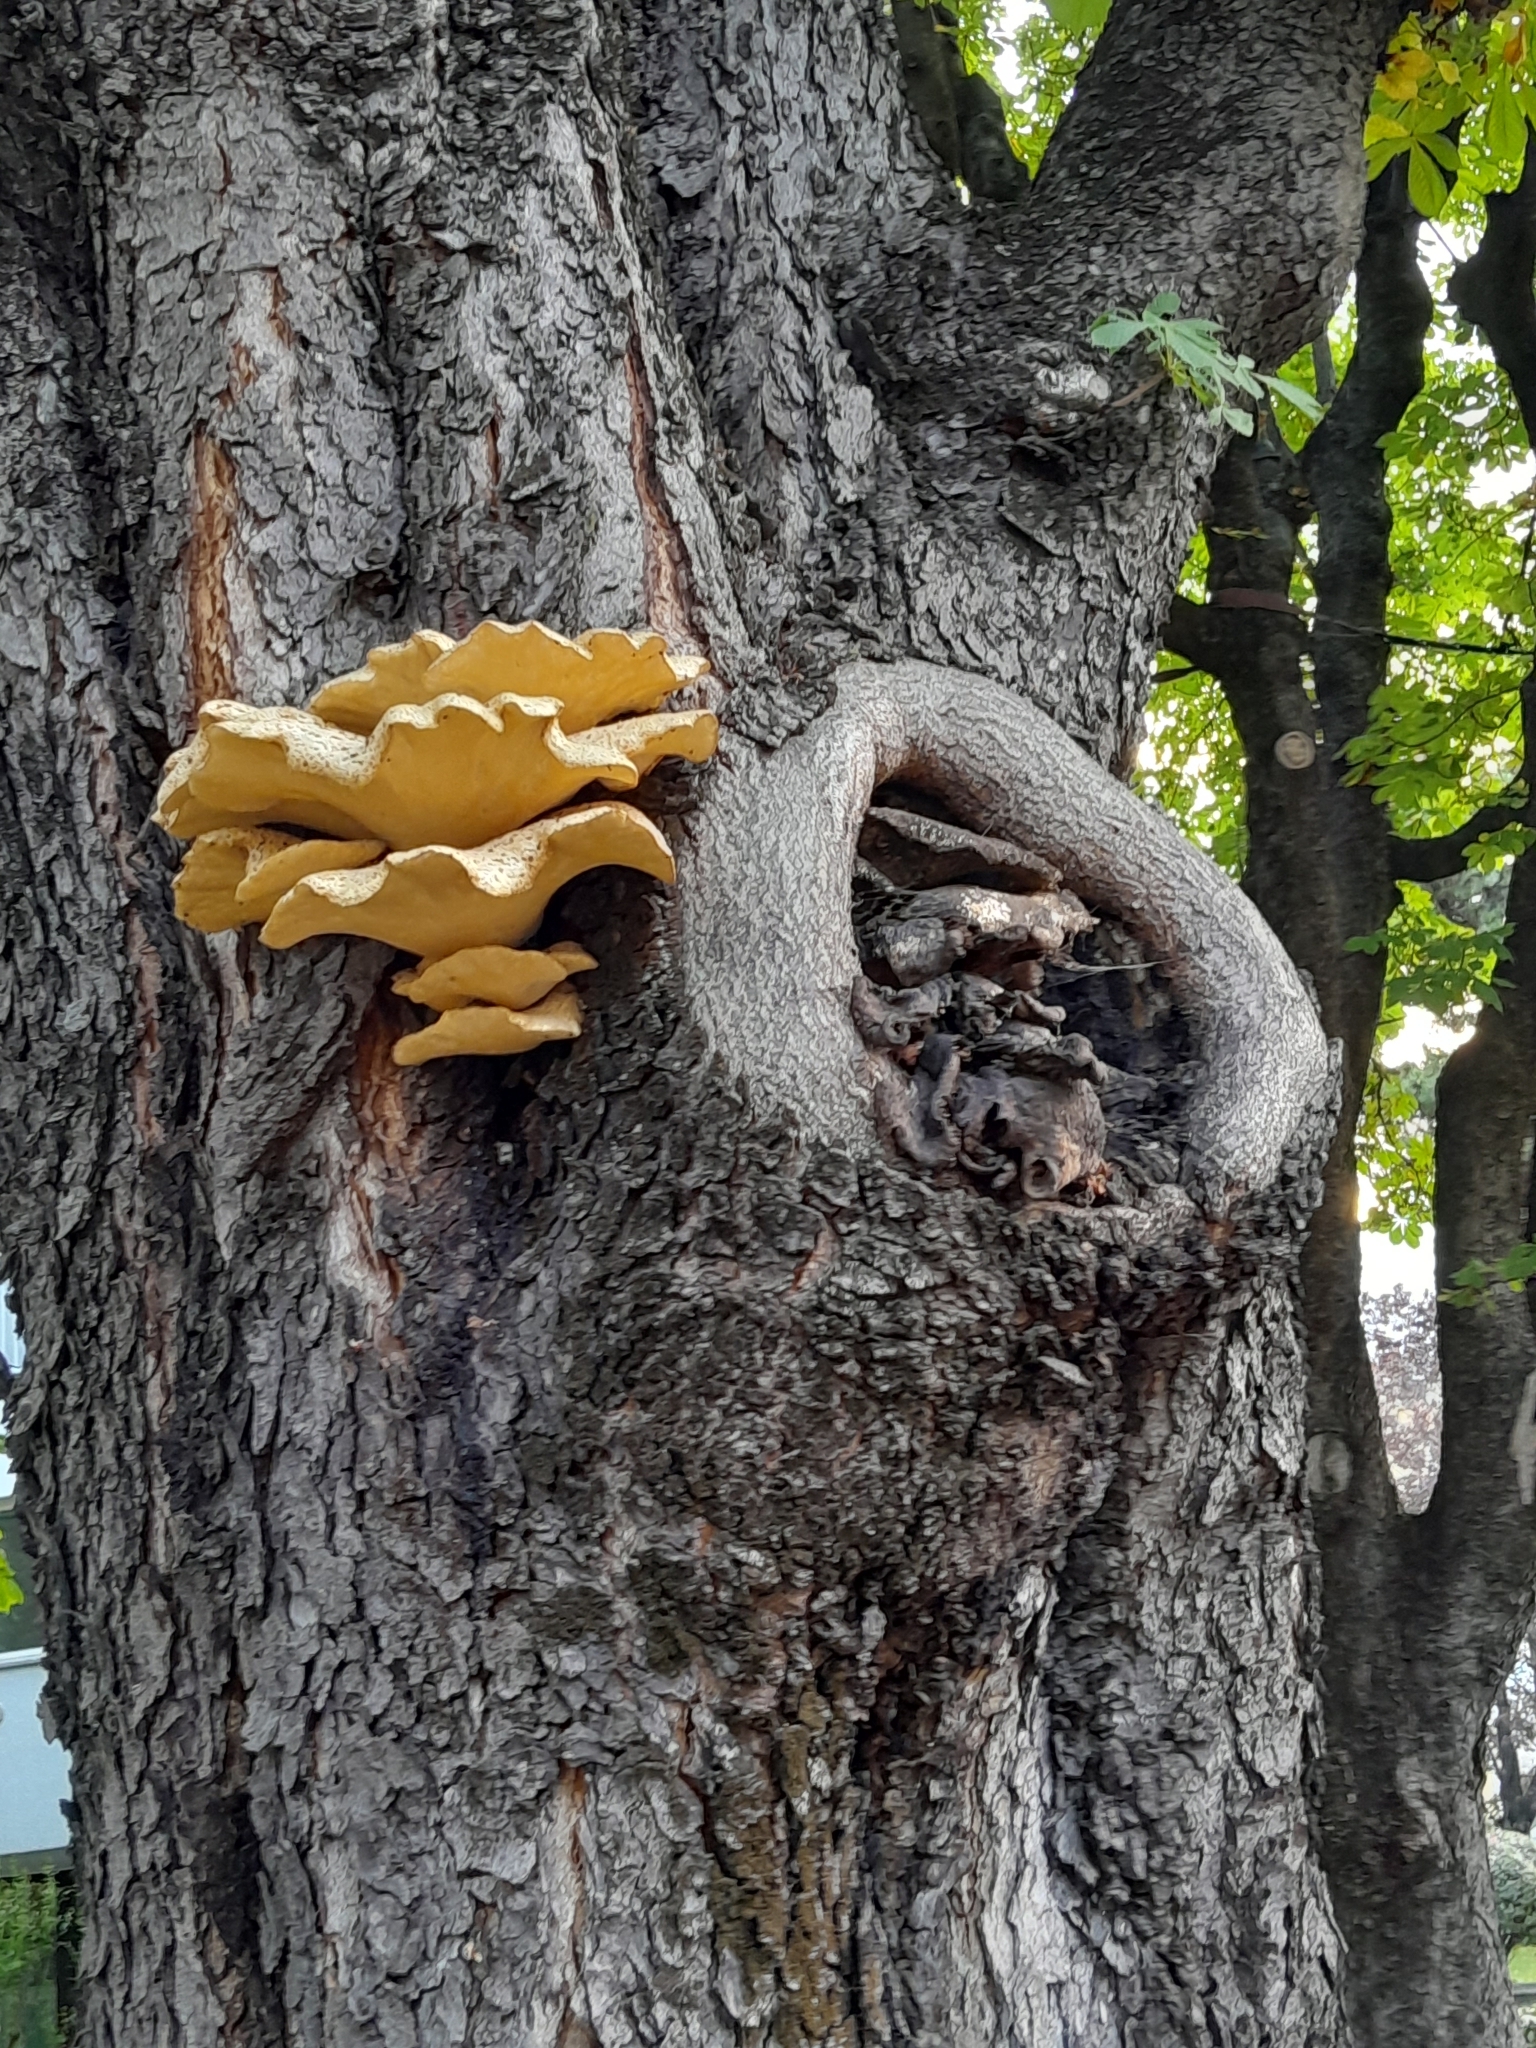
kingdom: Fungi
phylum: Basidiomycota
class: Agaricomycetes
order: Polyporales
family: Polyporaceae
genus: Cerioporus
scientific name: Cerioporus squamosus
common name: Dryad's saddle
